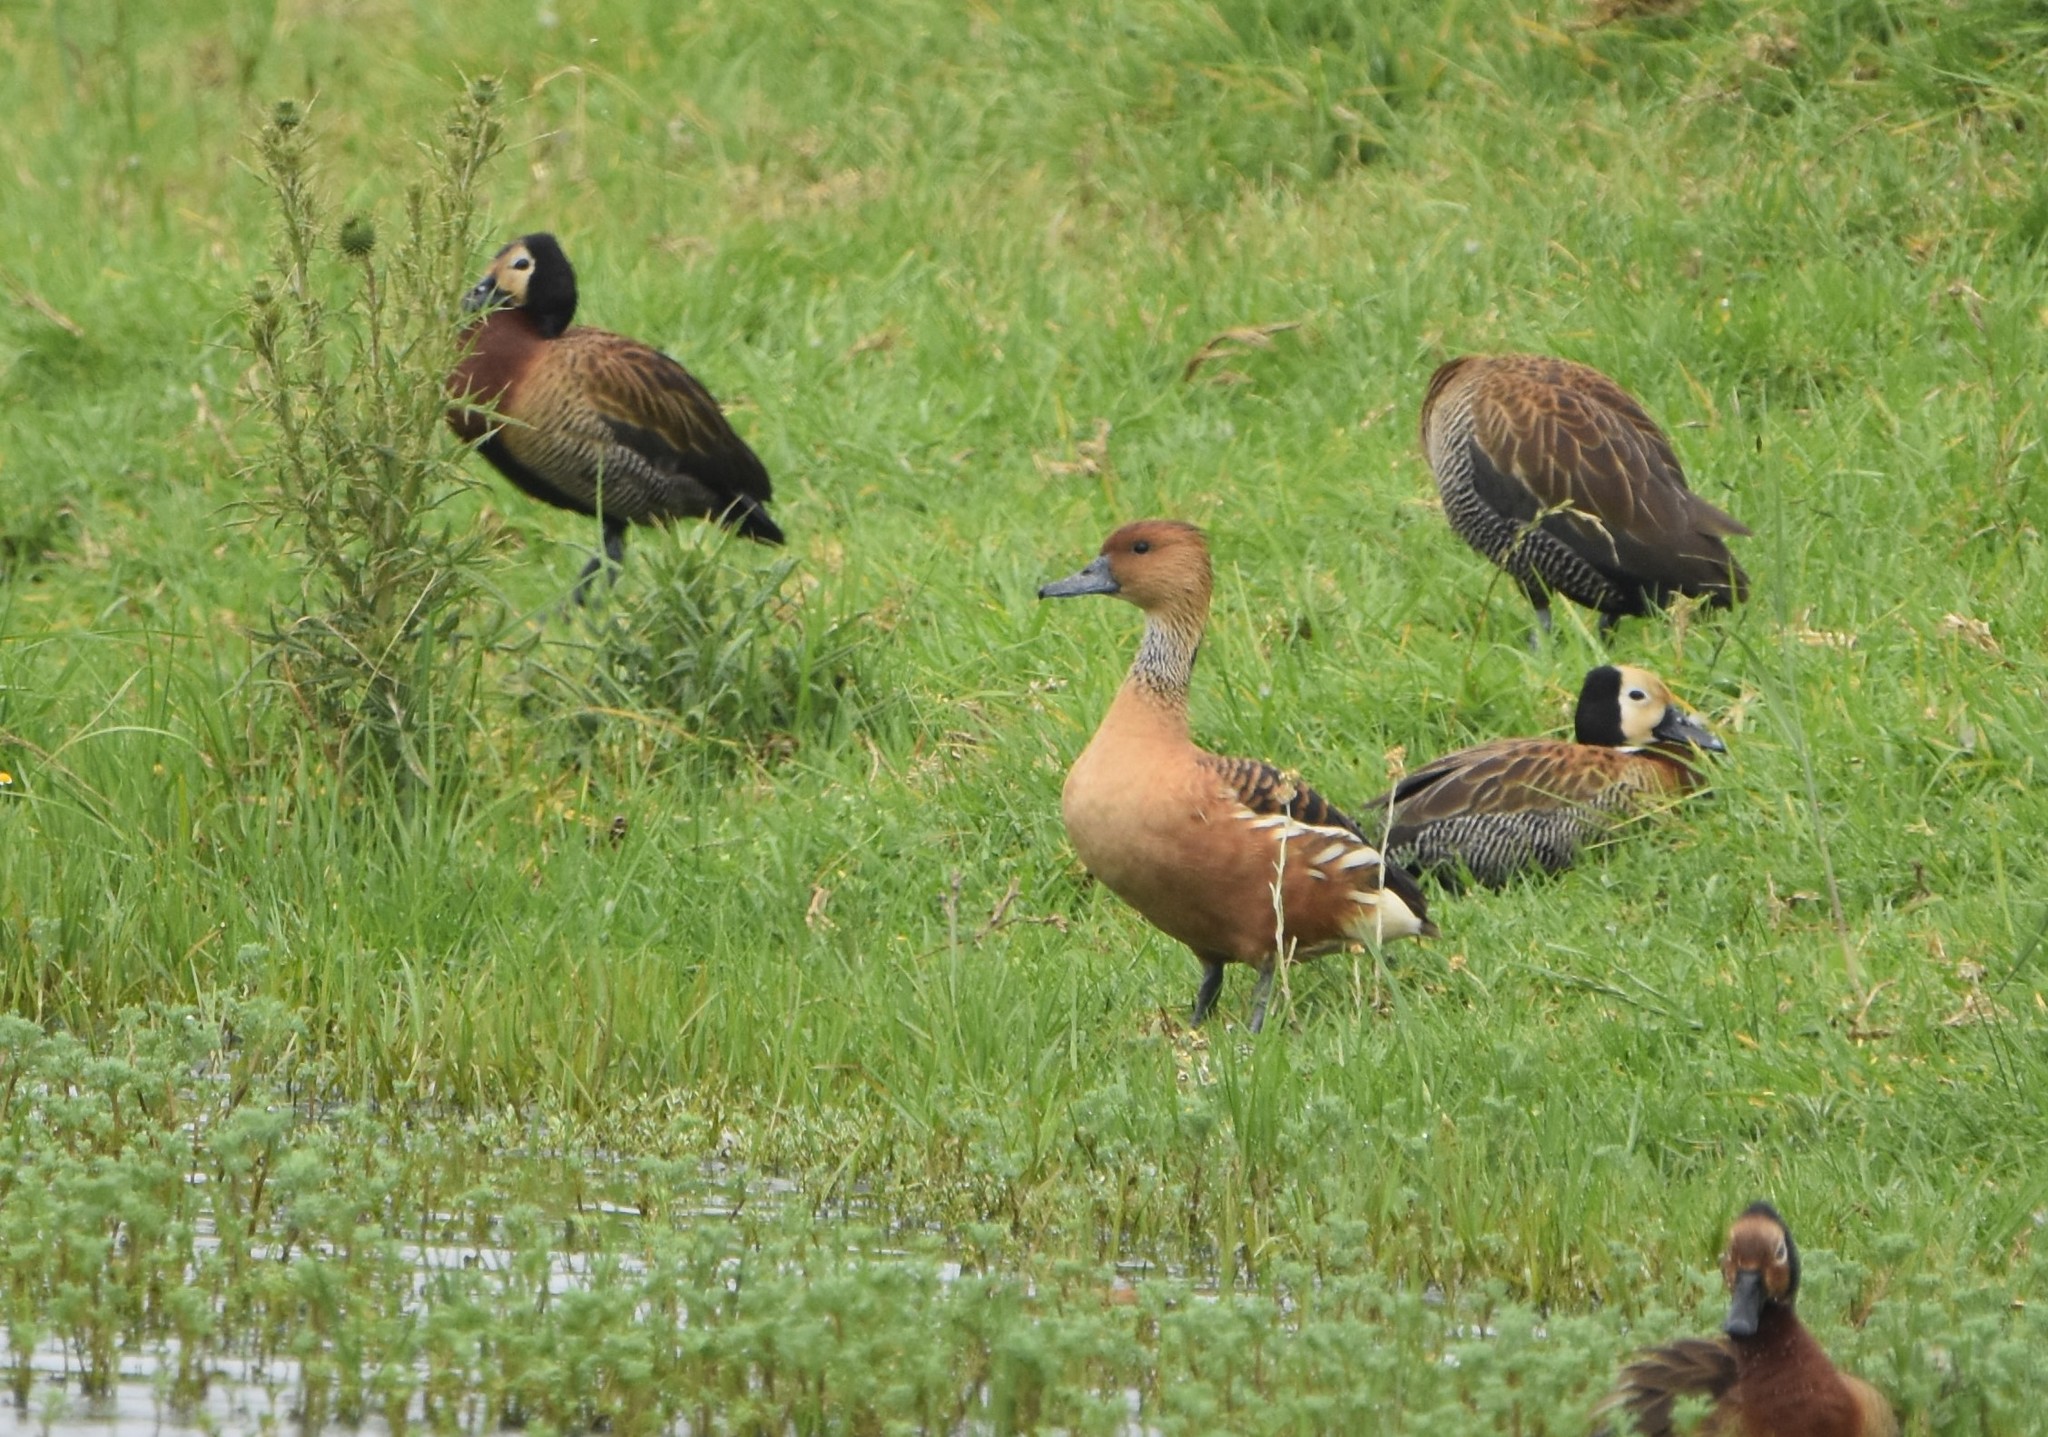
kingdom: Animalia
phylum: Chordata
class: Aves
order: Anseriformes
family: Anatidae
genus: Dendrocygna
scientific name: Dendrocygna bicolor
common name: Fulvous whistling duck
